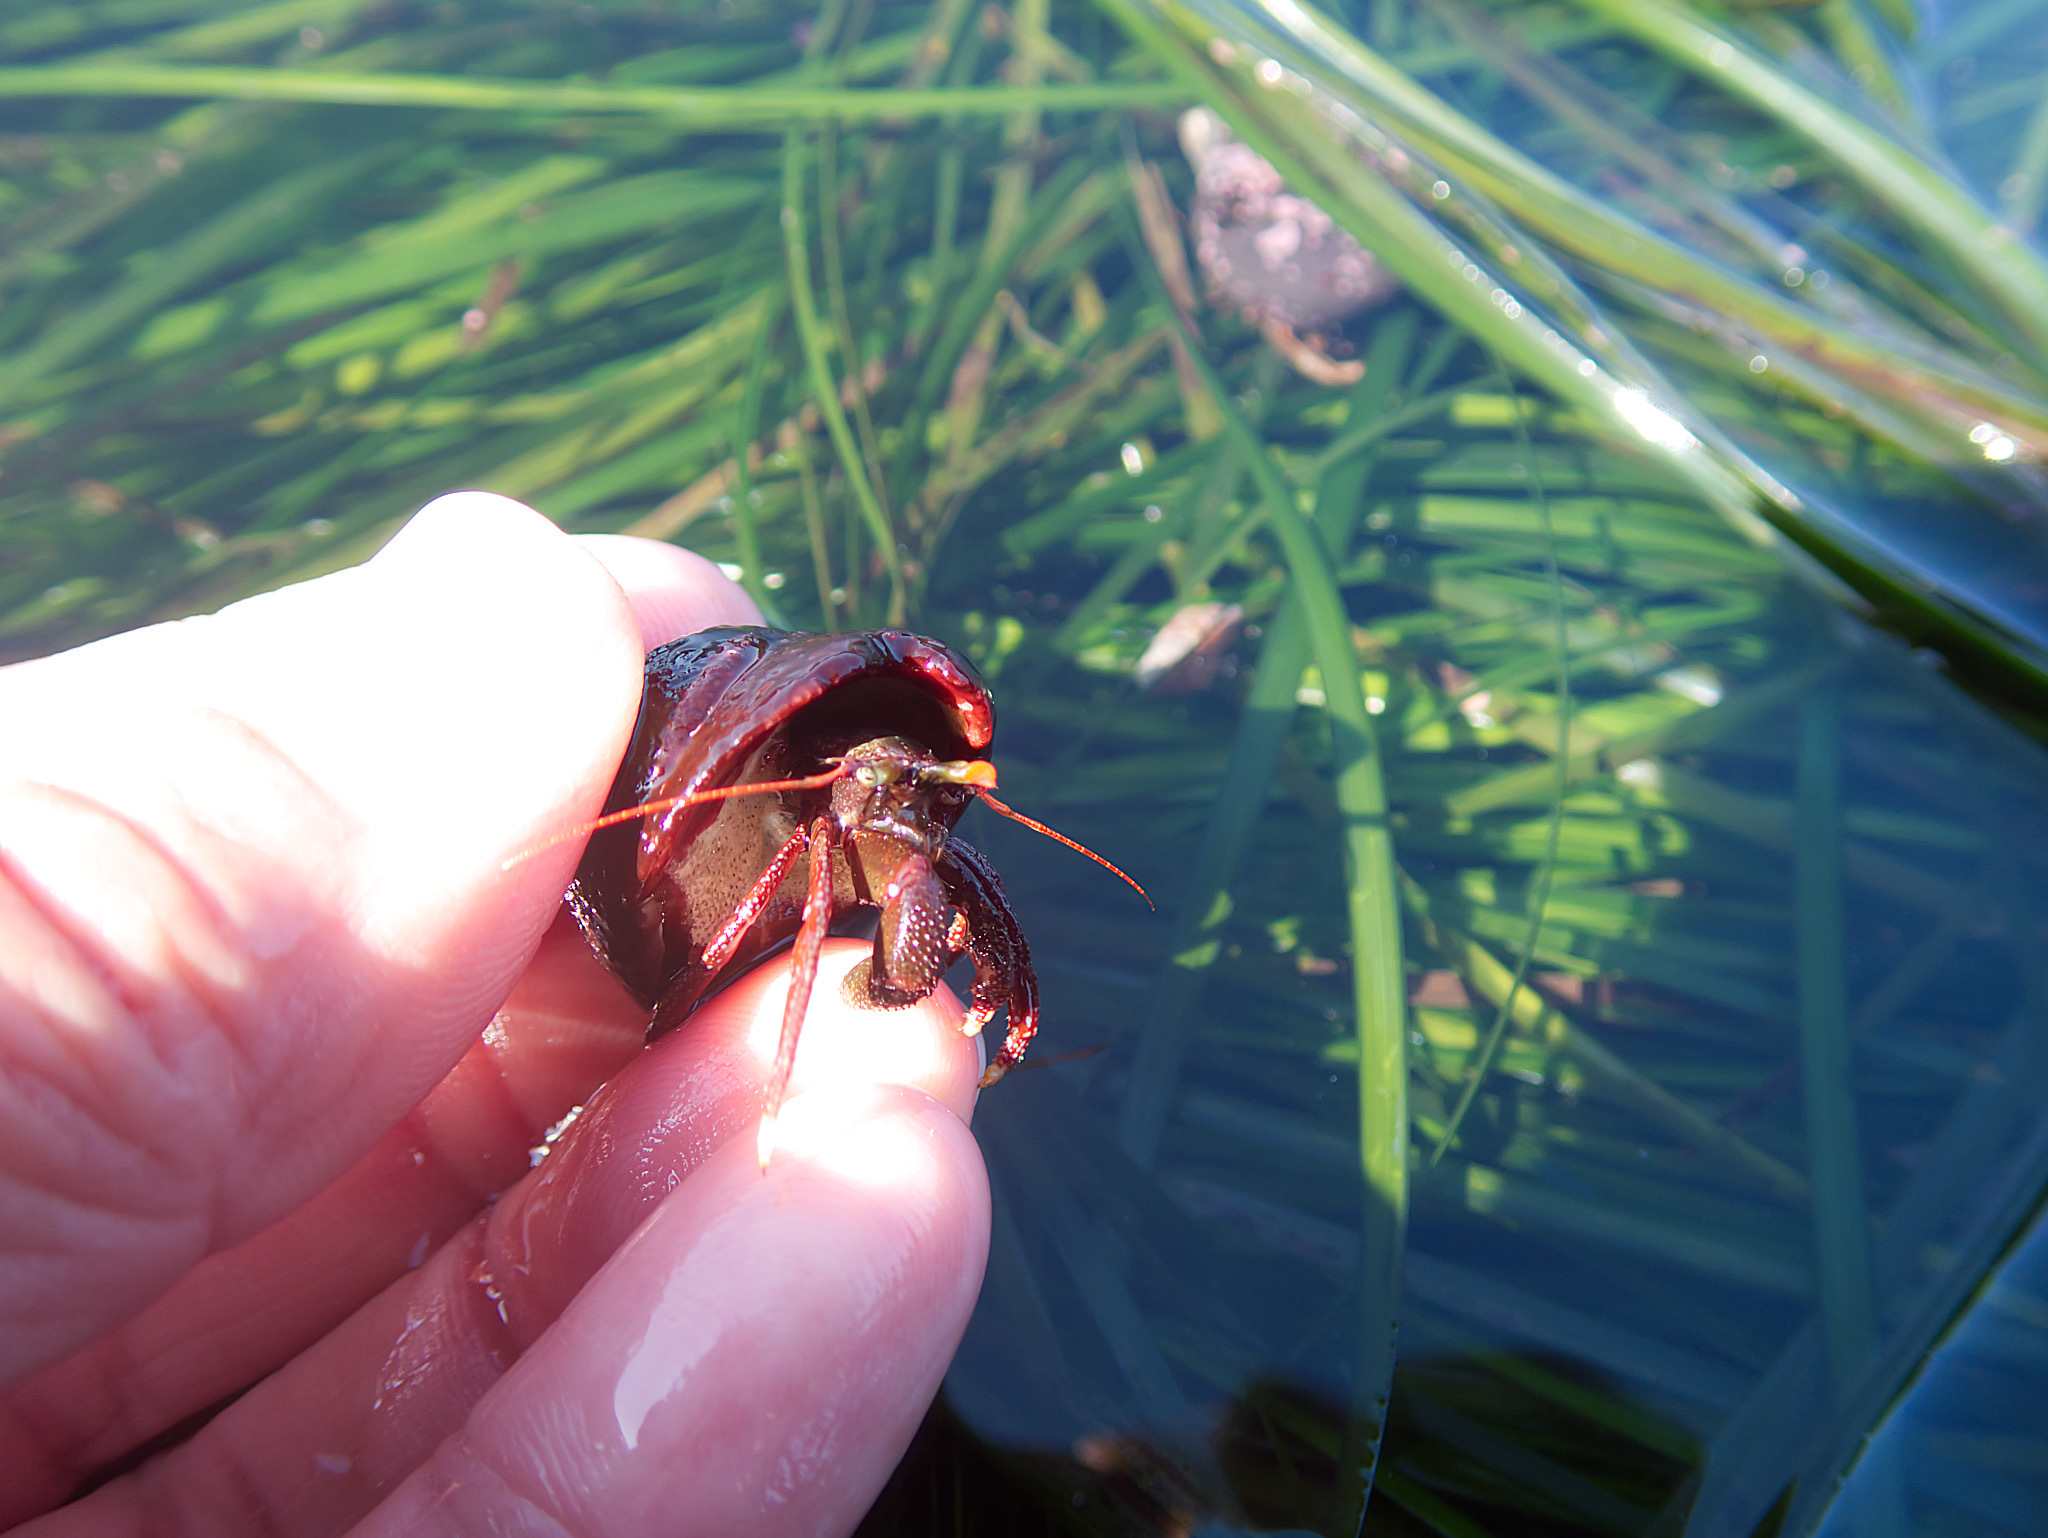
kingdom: Animalia
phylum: Arthropoda
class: Malacostraca
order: Decapoda
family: Paguridae
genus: Pagurus
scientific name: Pagurus hemphilli
